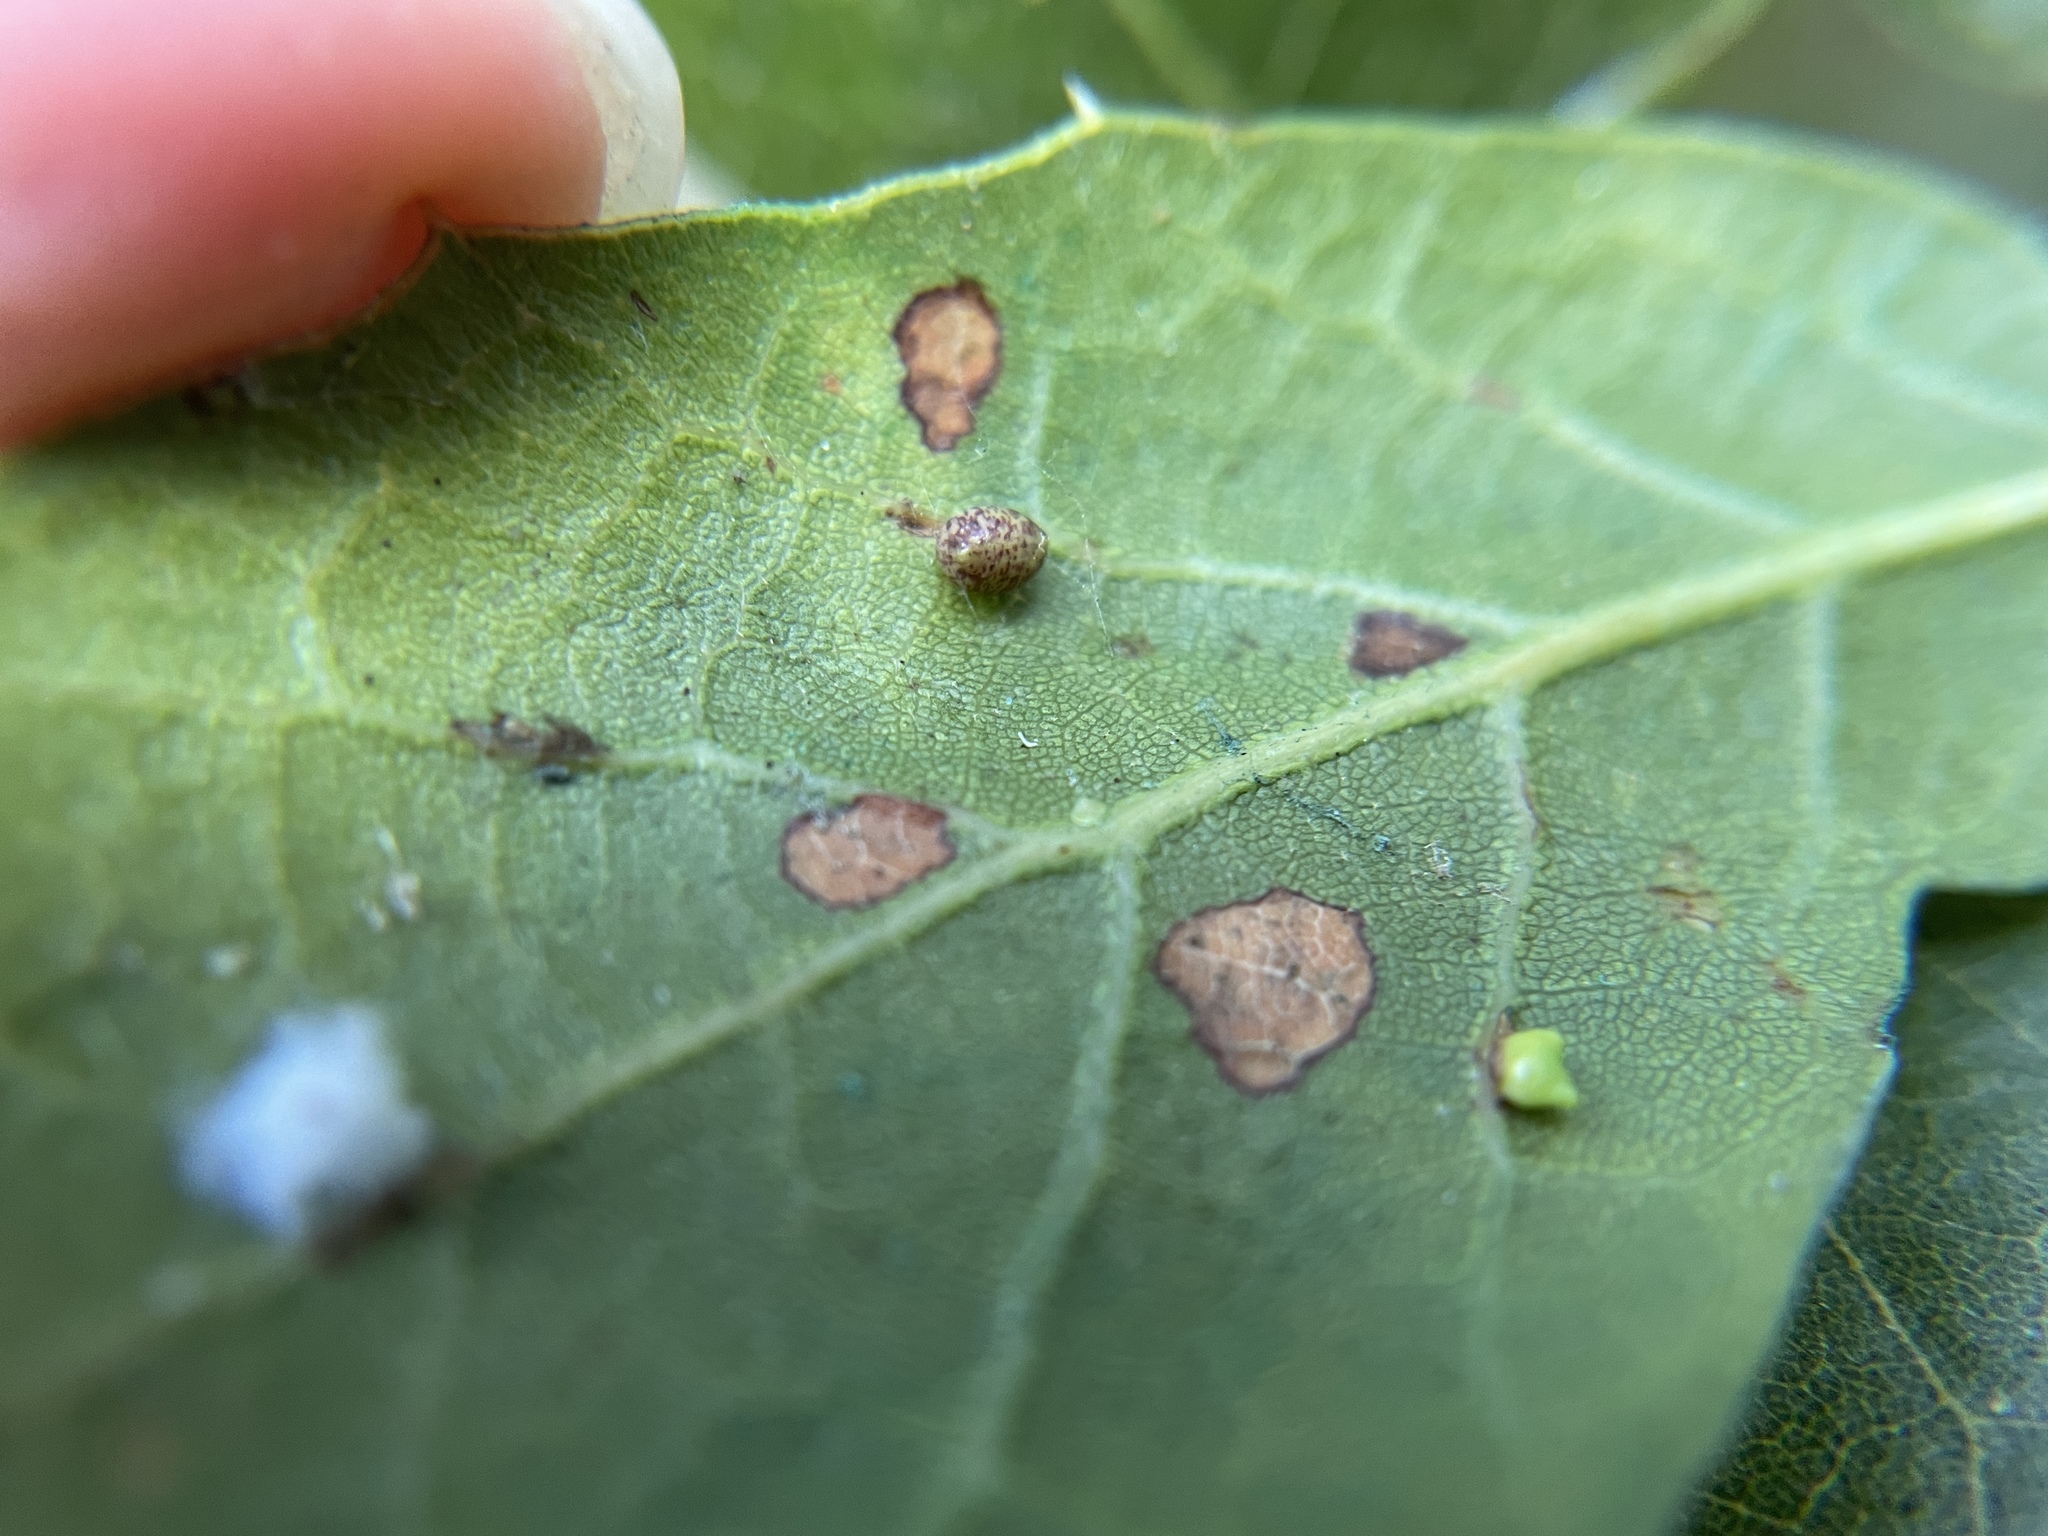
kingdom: Animalia
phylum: Arthropoda
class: Insecta
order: Hymenoptera
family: Cynipidae
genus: Dryocosmus
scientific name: Dryocosmus
